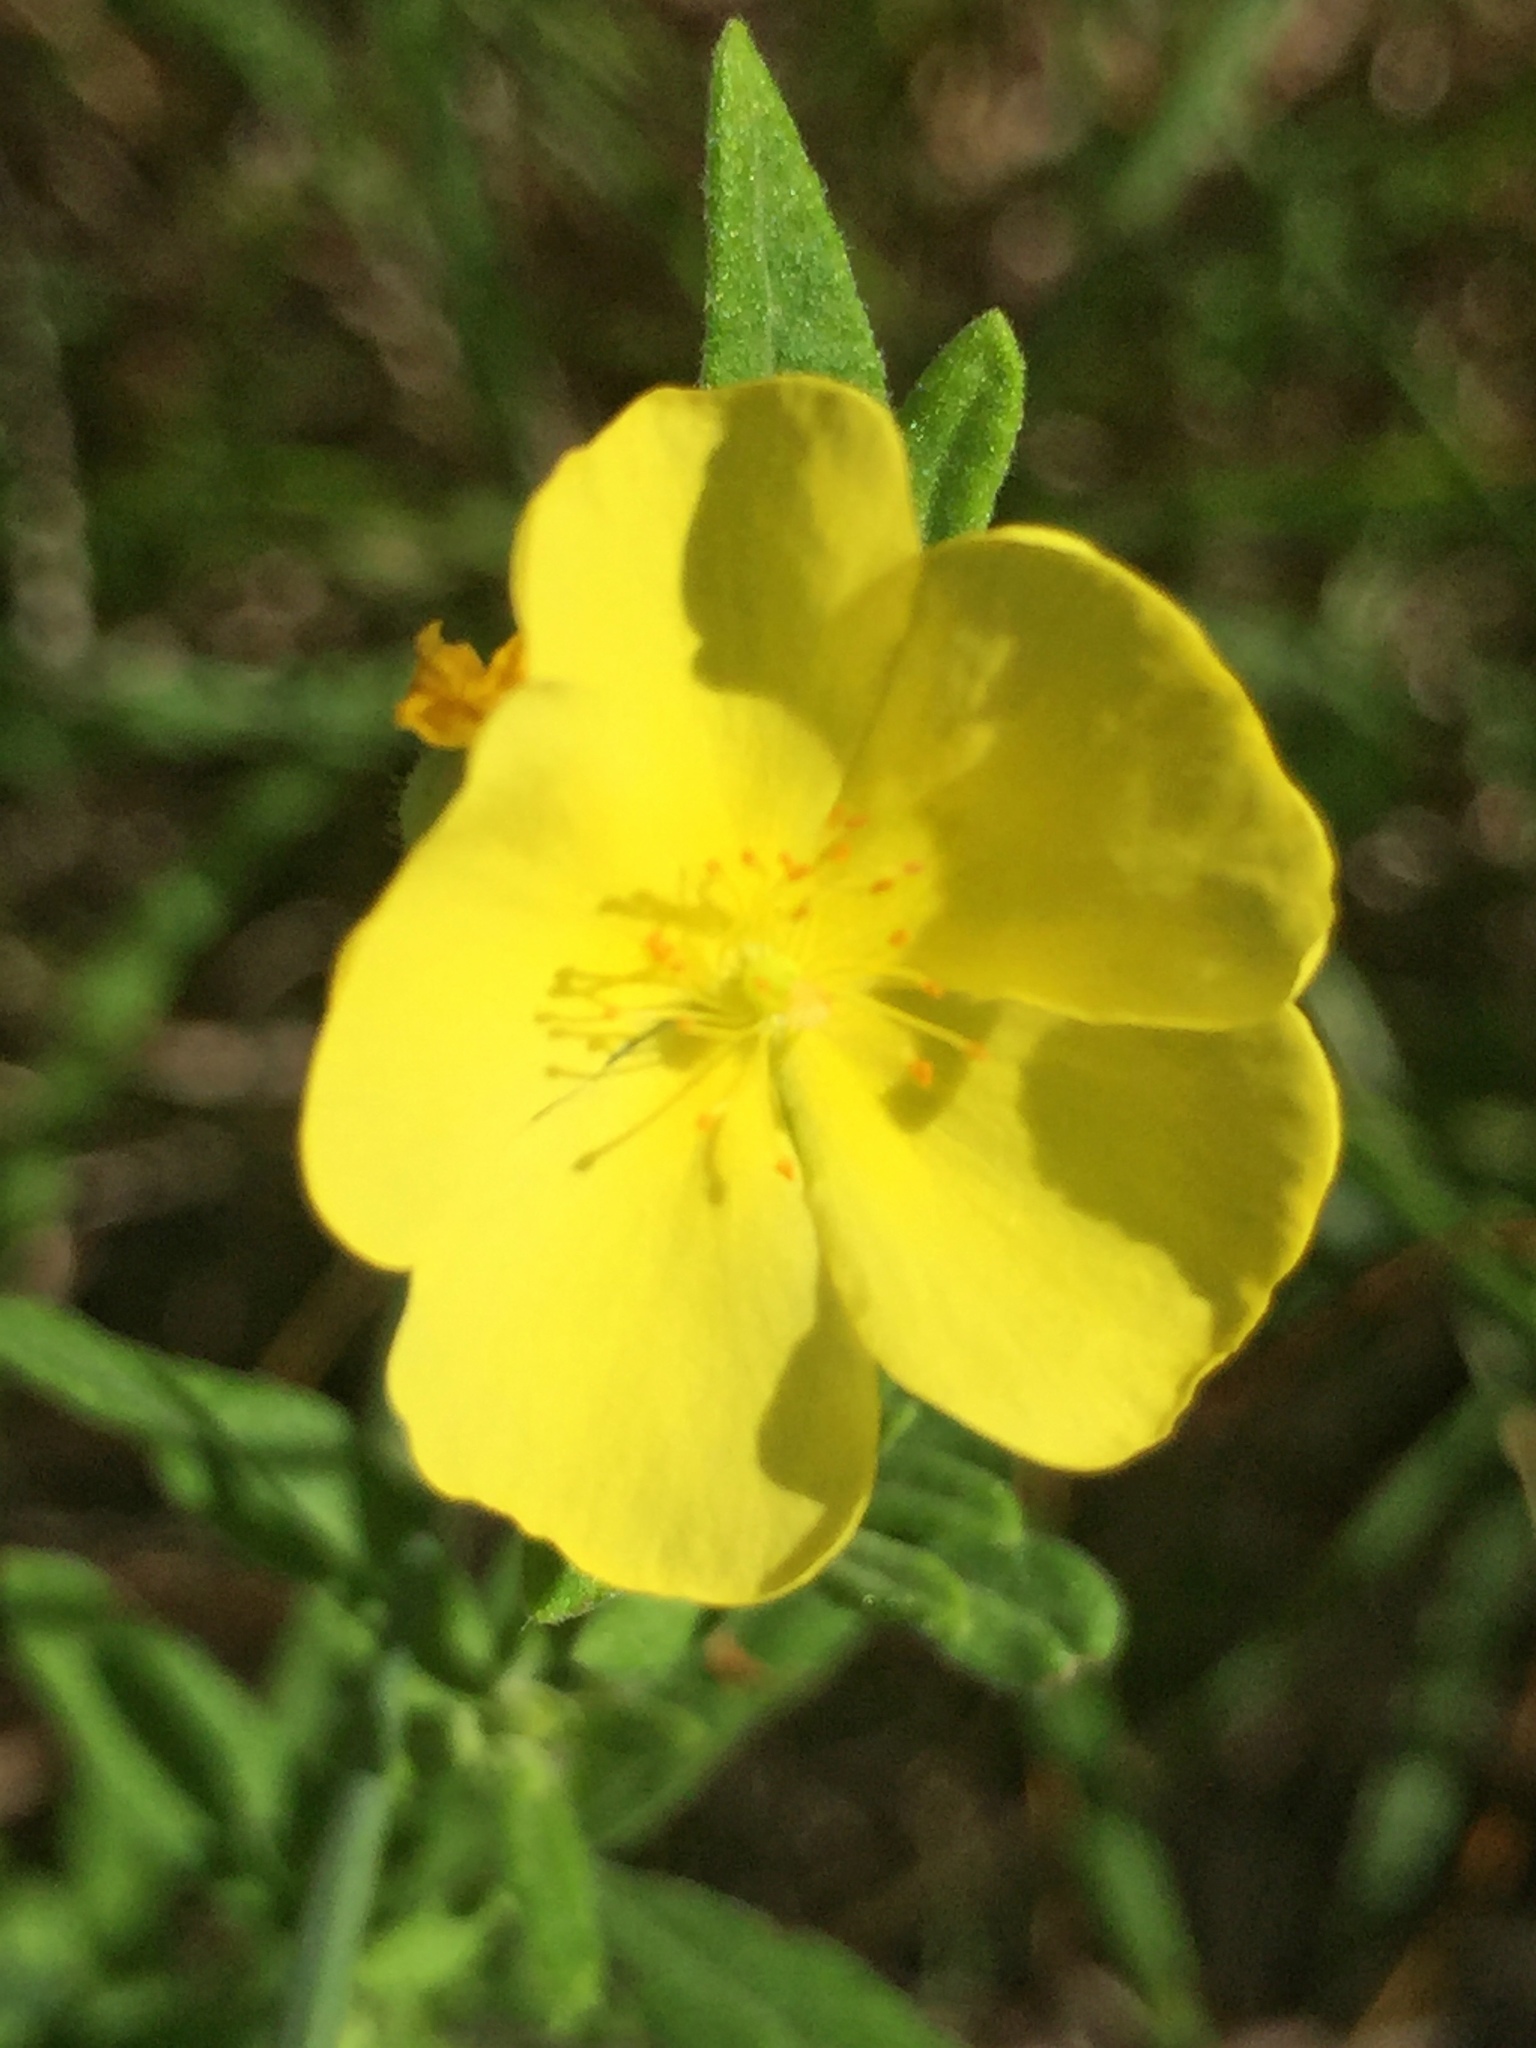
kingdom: Plantae
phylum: Tracheophyta
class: Magnoliopsida
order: Malvales
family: Cistaceae
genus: Crocanthemum
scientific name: Crocanthemum bicknellii
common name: Hoary frostweed
